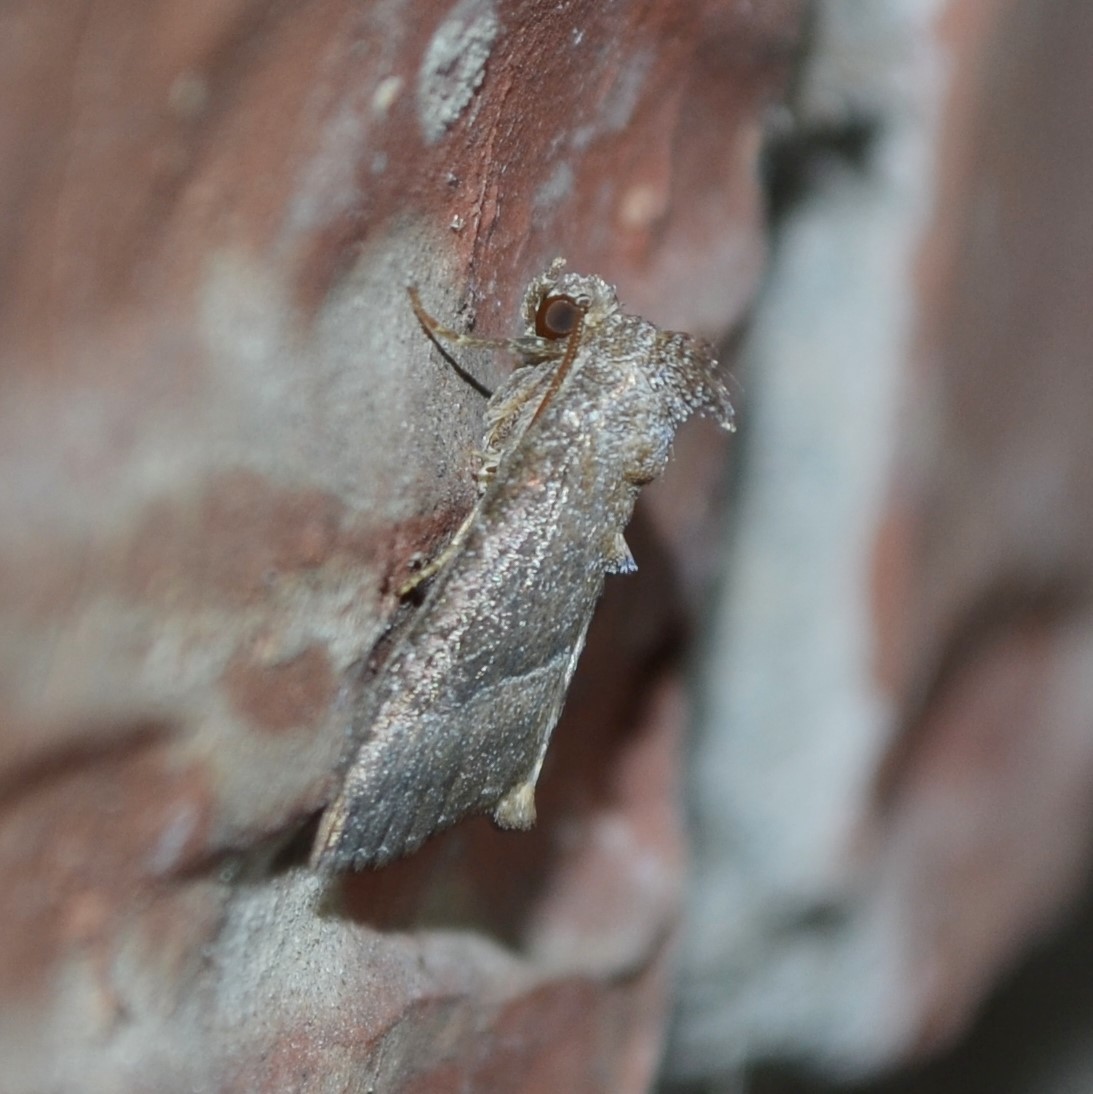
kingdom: Animalia
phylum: Arthropoda
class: Insecta
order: Lepidoptera
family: Noctuidae
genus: Ogdoconta
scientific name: Ogdoconta cinereola
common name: Common pinkband
